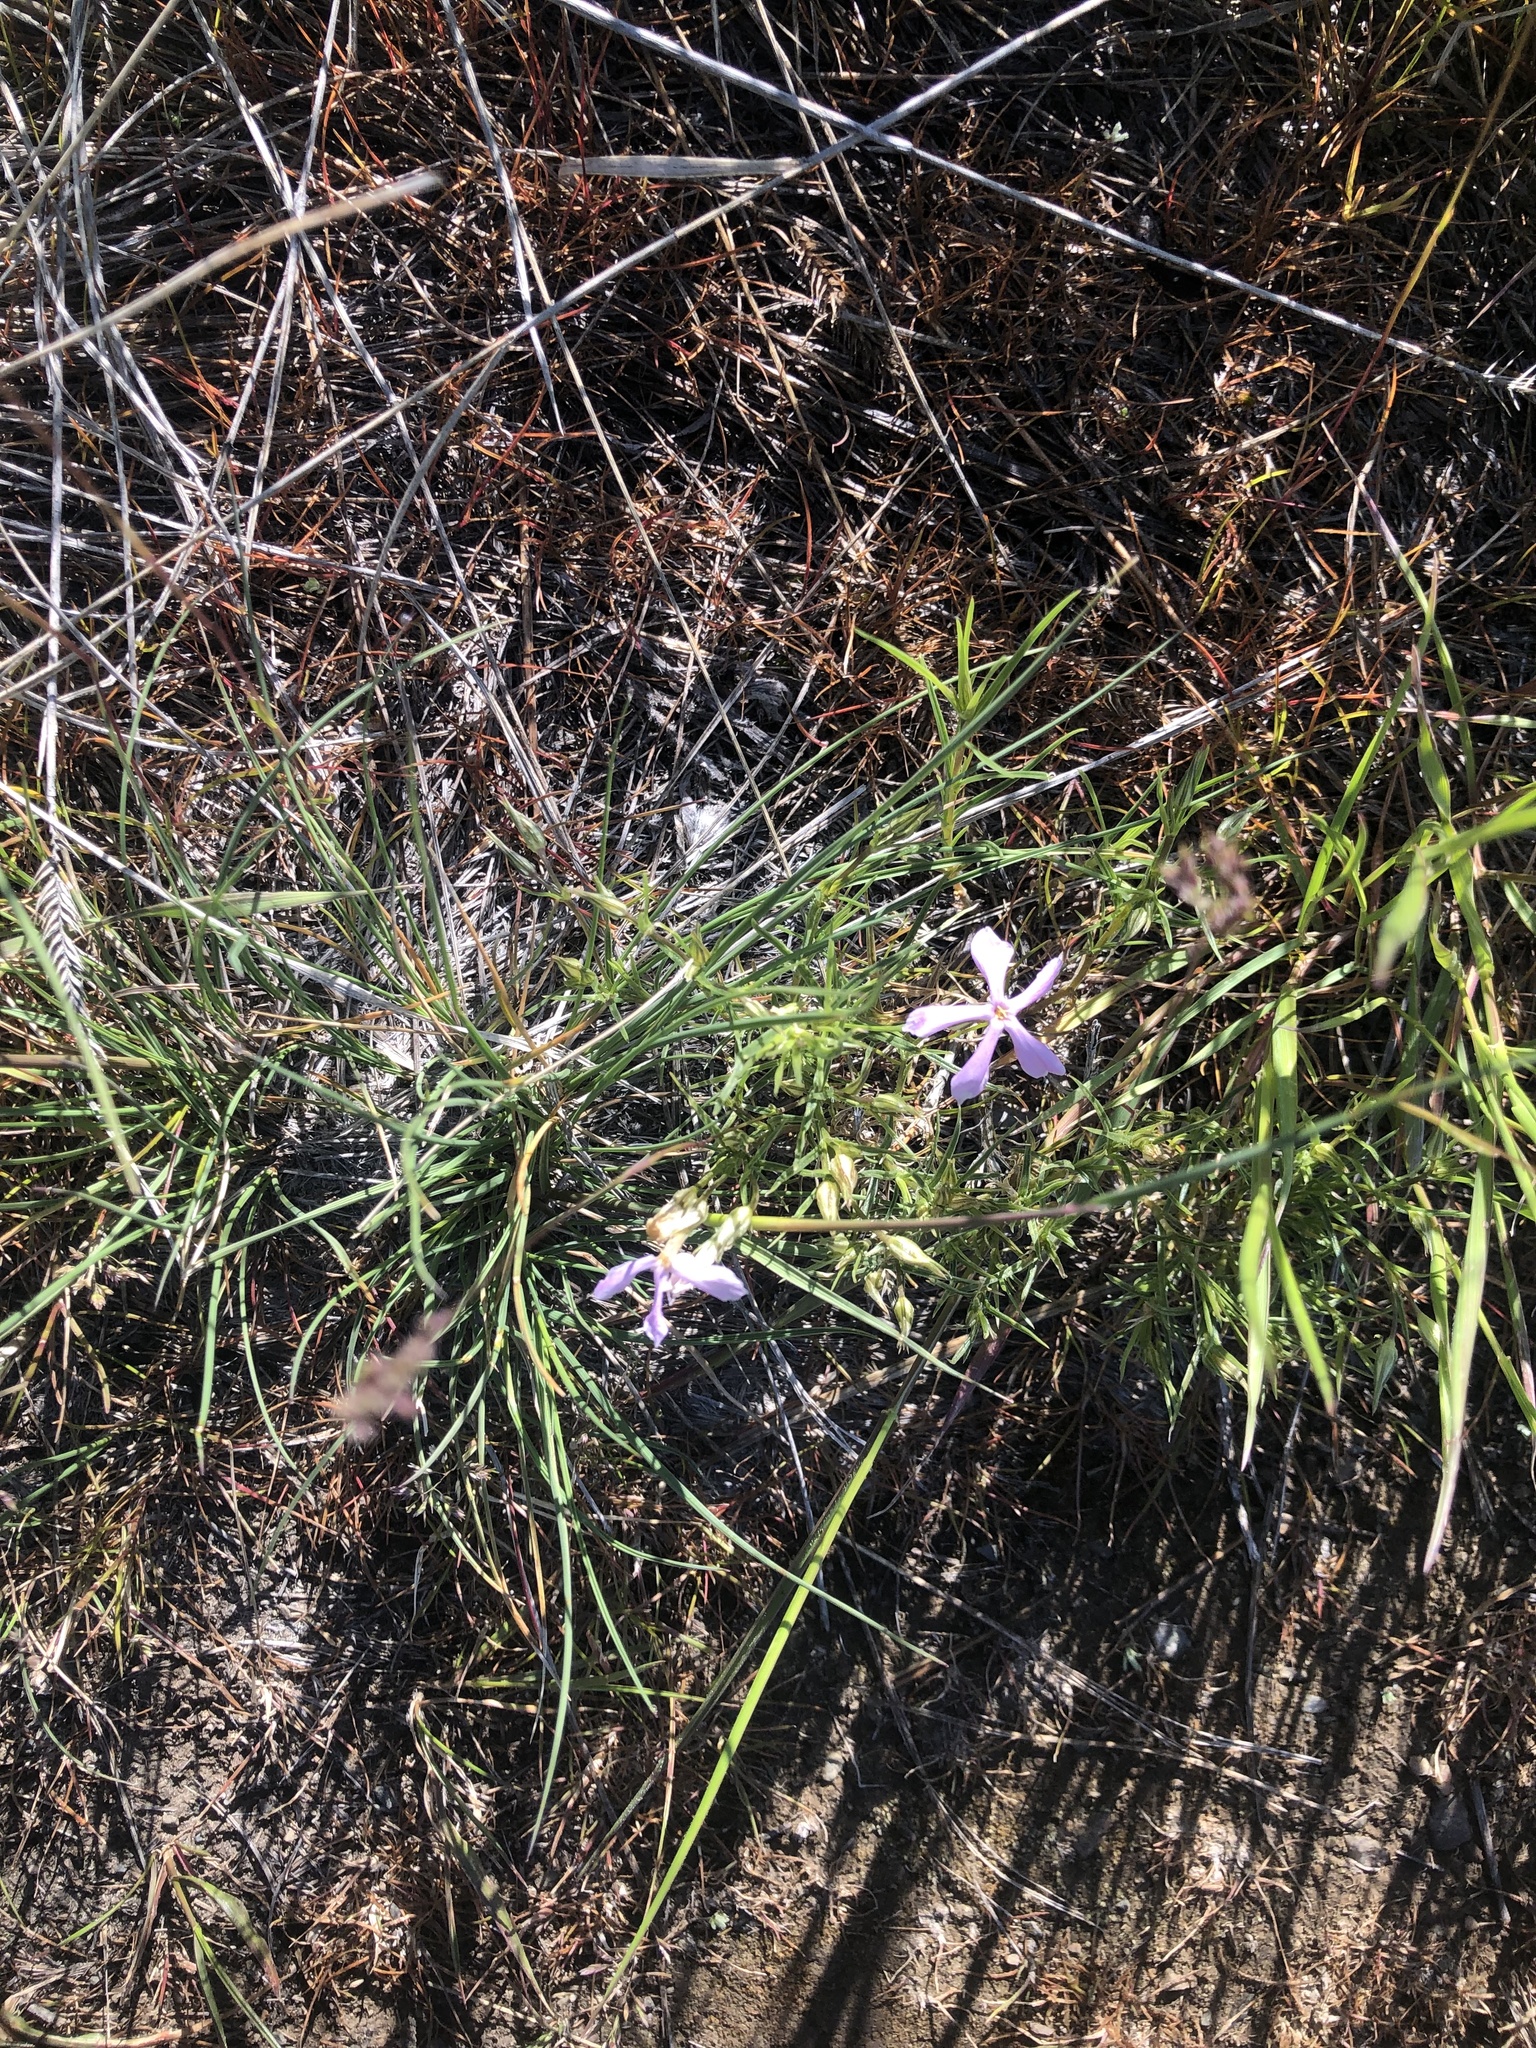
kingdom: Plantae
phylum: Tracheophyta
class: Magnoliopsida
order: Ericales
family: Polemoniaceae
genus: Phlox
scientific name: Phlox longifolia
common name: Longleaf phlox
